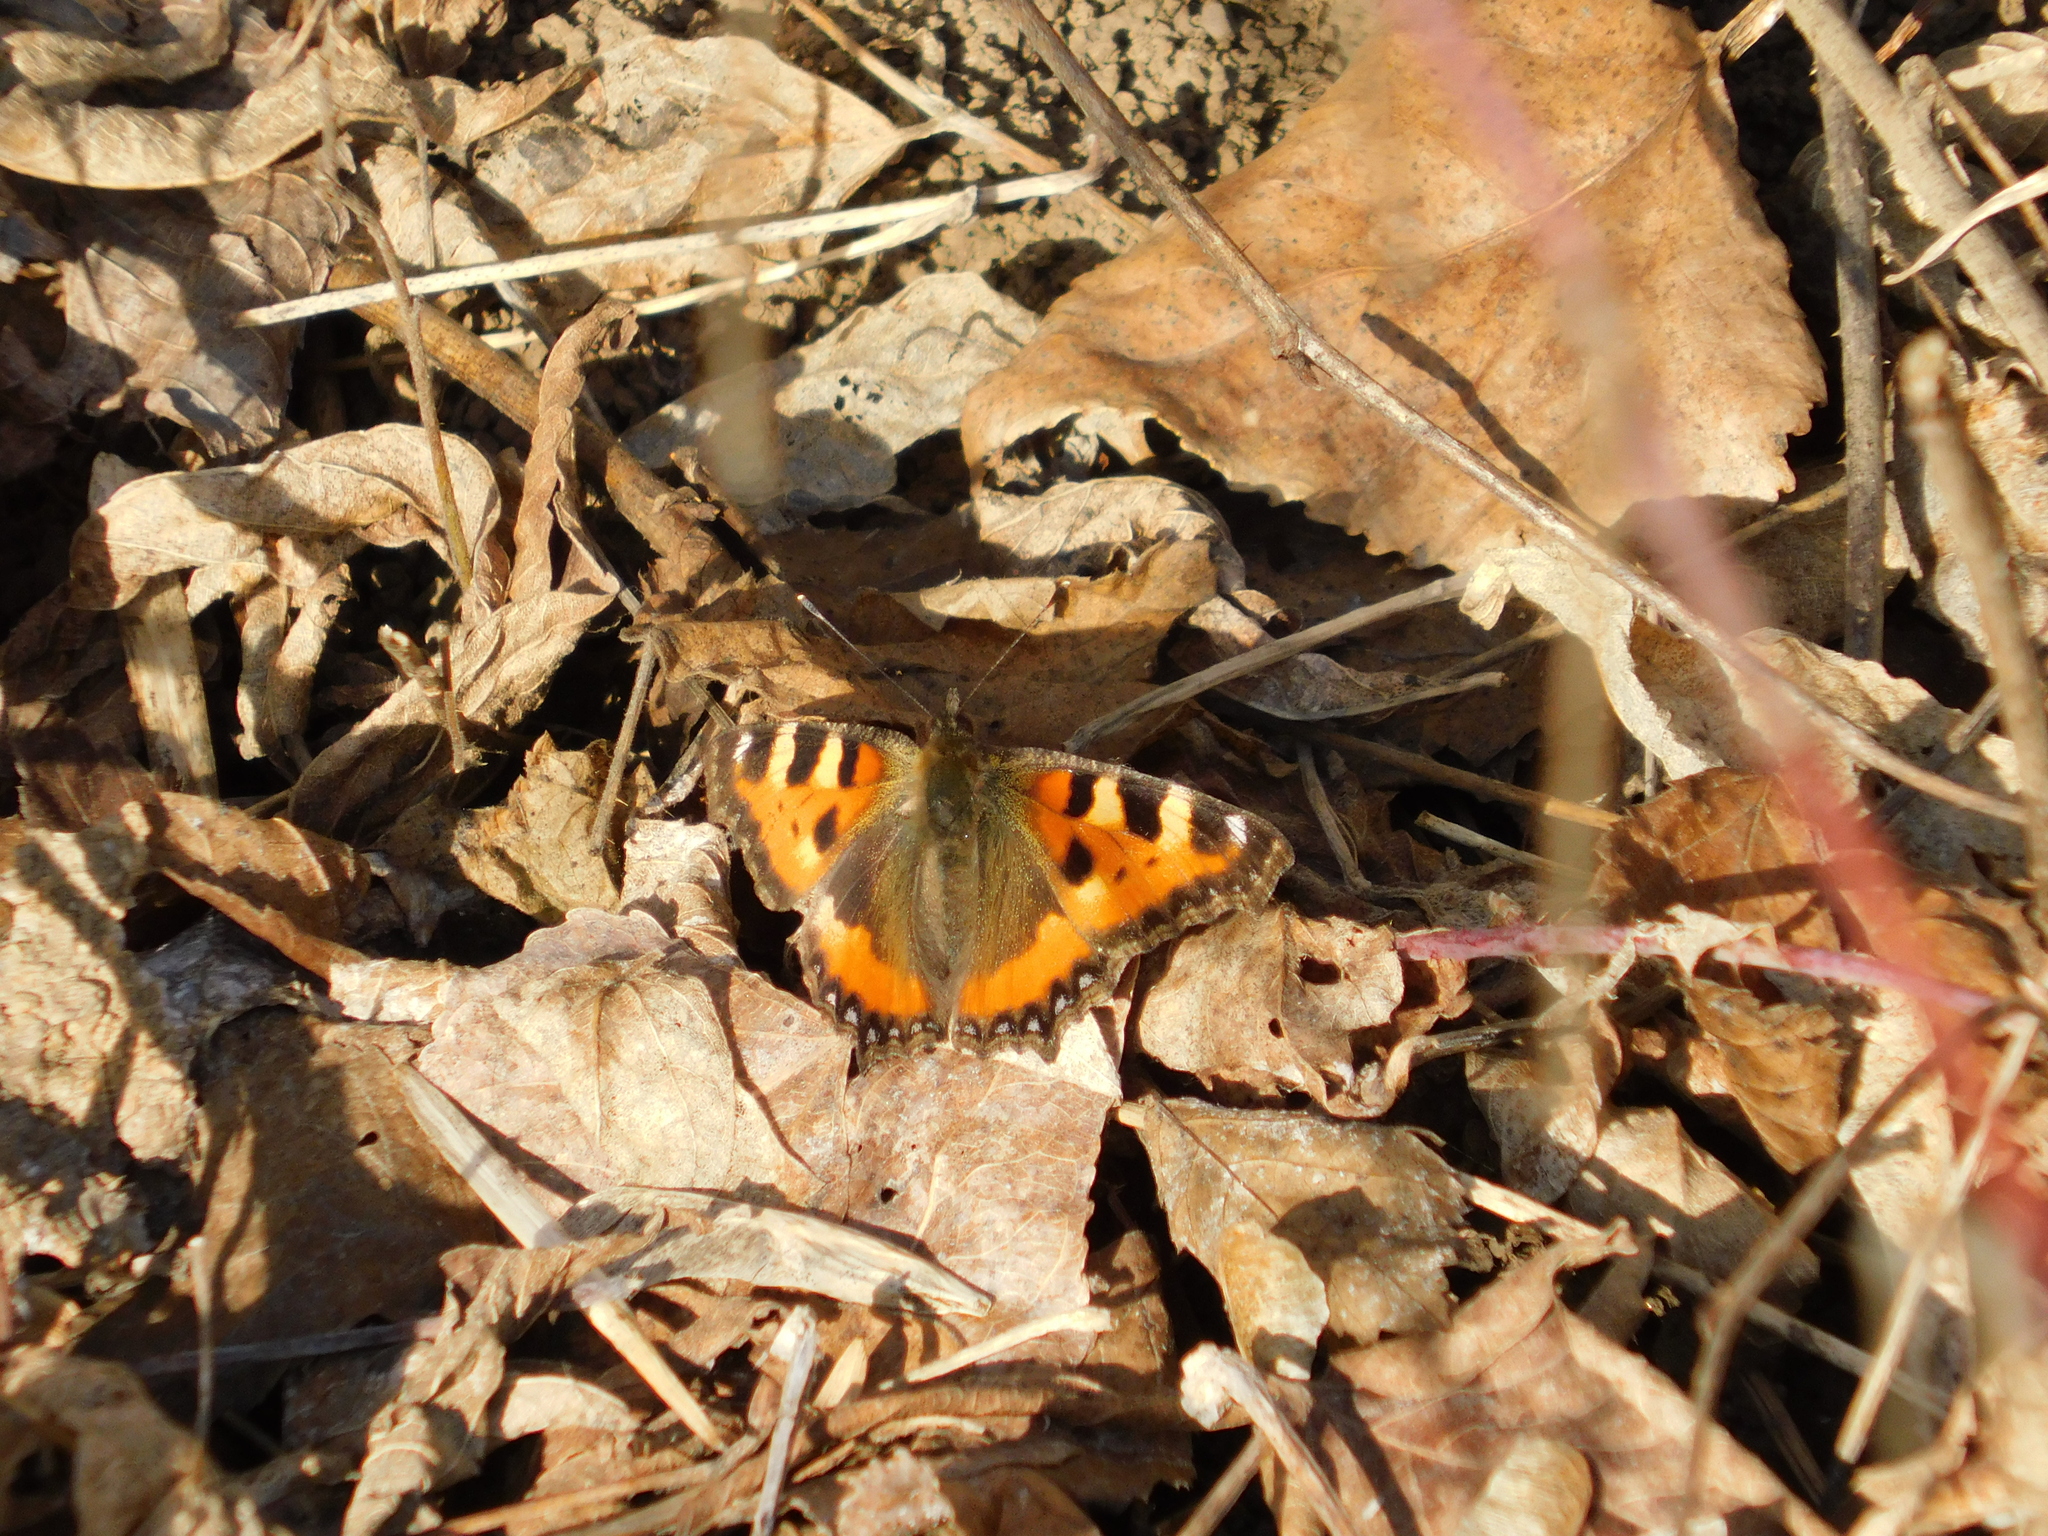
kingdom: Animalia
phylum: Arthropoda
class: Insecta
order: Lepidoptera
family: Nymphalidae
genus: Aglais
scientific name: Aglais urticae
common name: Small tortoiseshell
